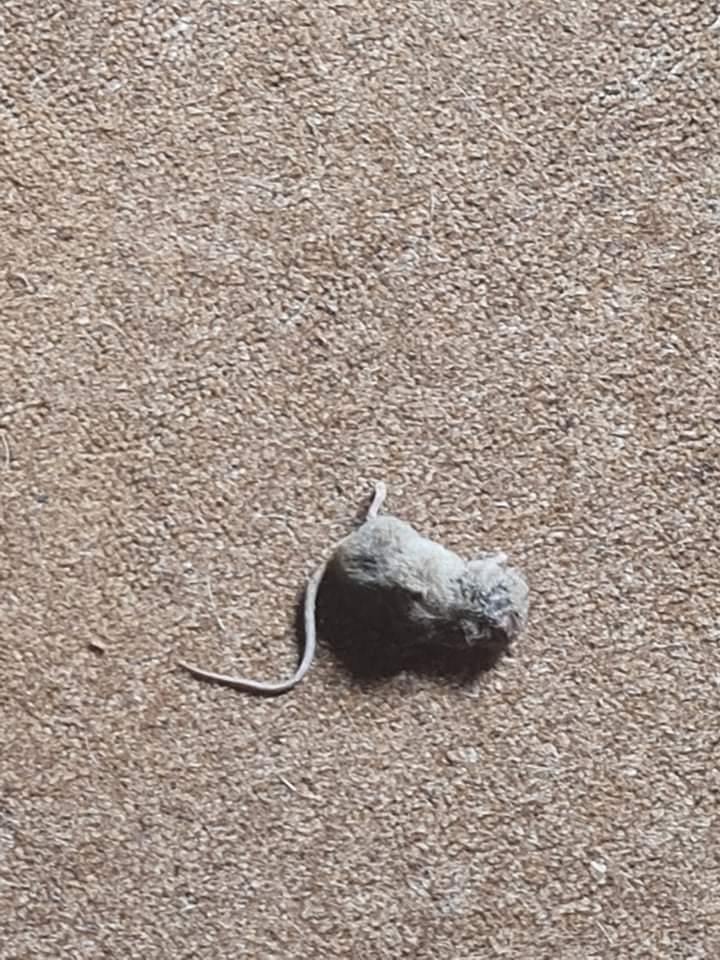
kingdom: Animalia
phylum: Chordata
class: Mammalia
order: Rodentia
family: Muridae
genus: Mus
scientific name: Mus musculus
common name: House mouse
